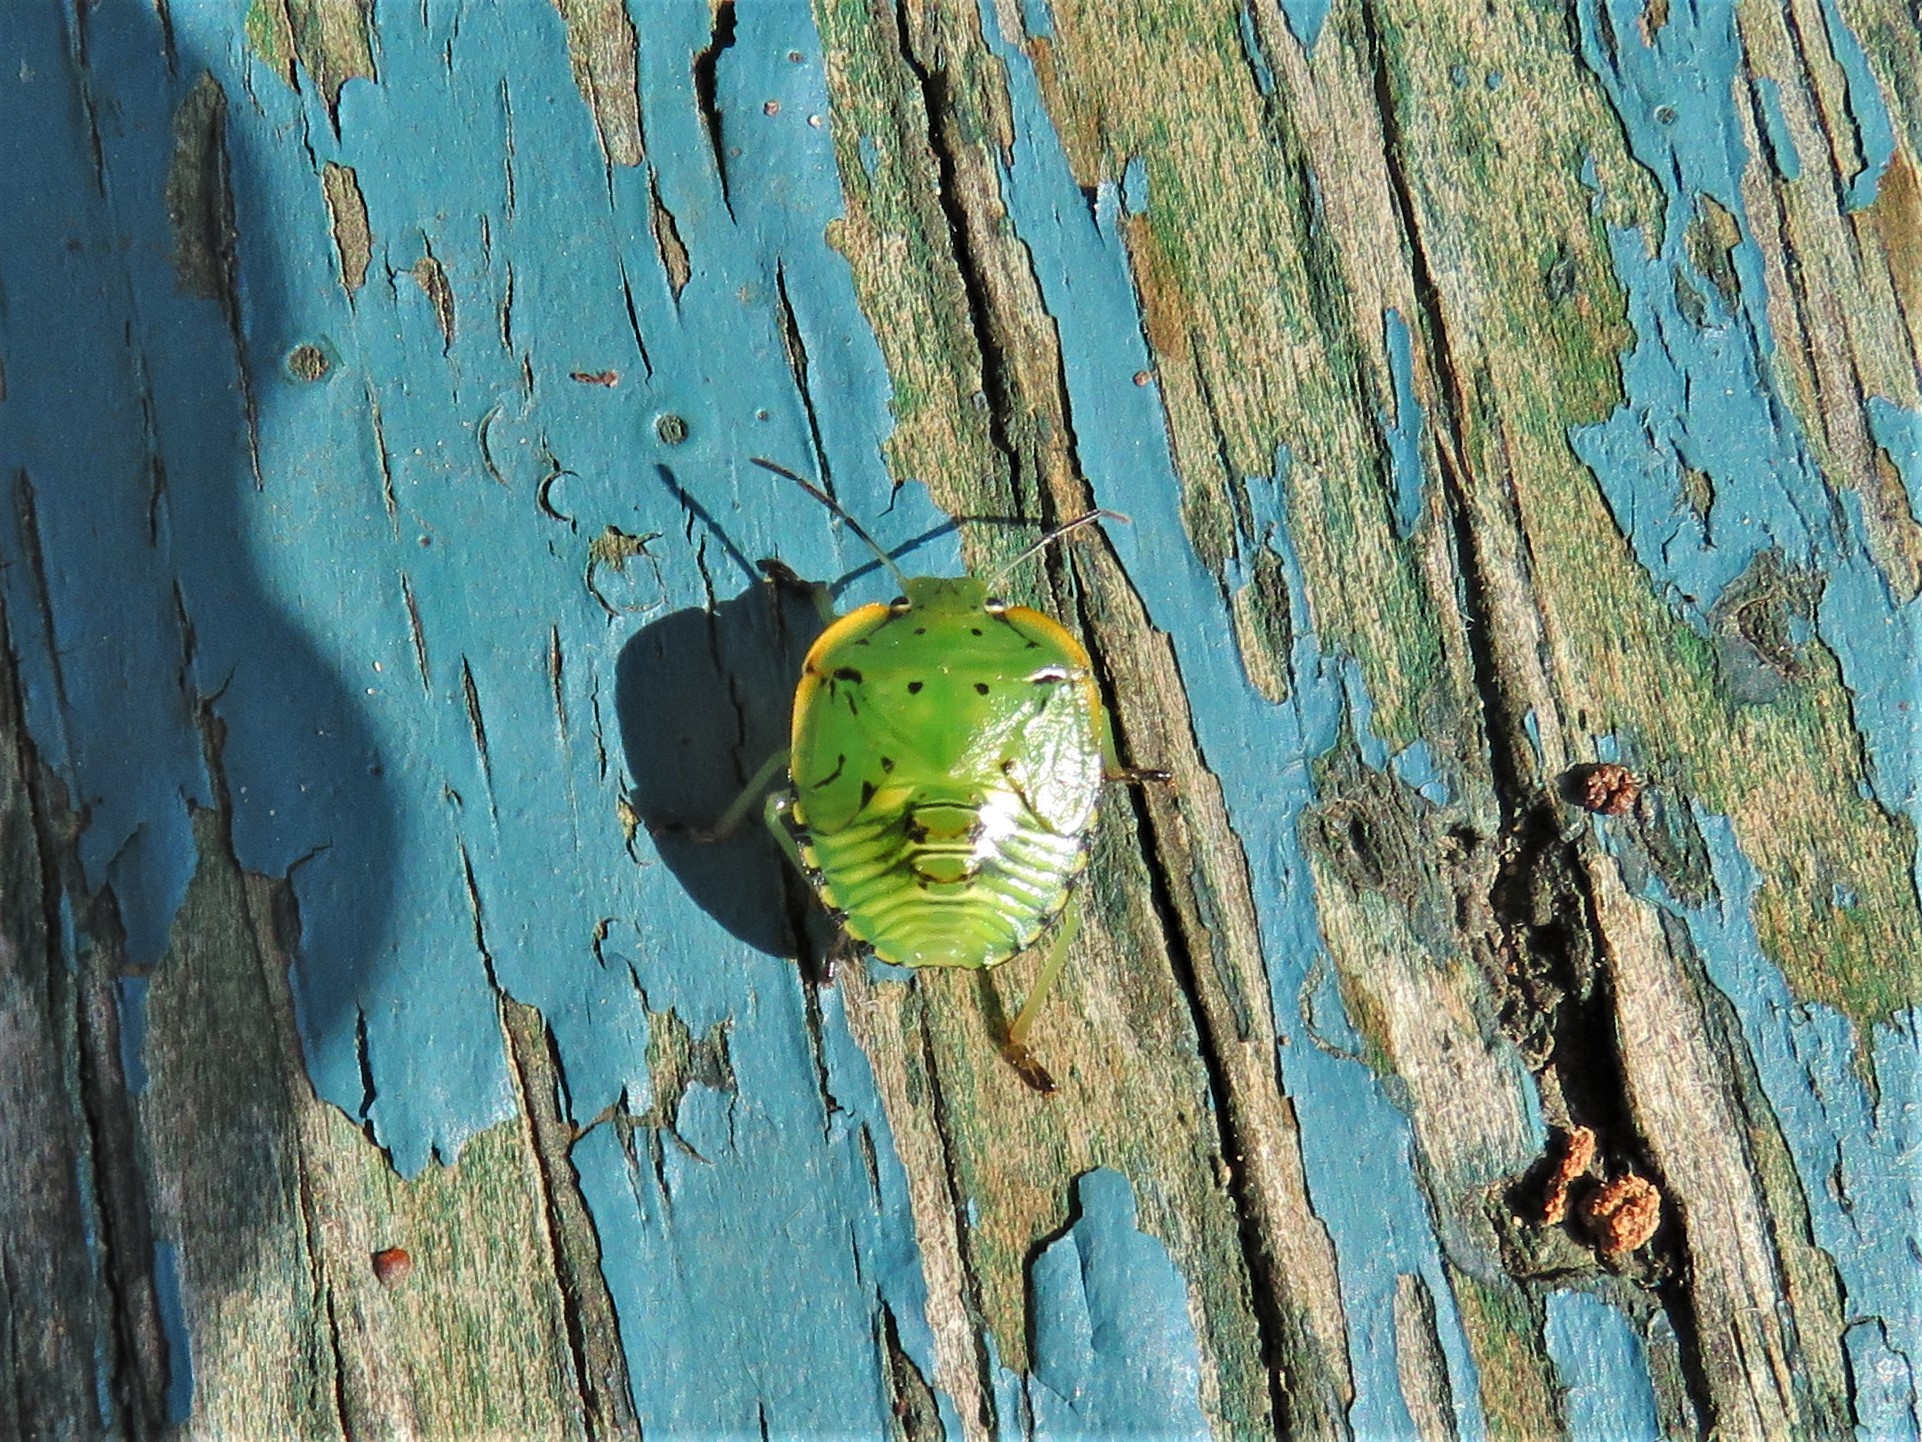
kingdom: Animalia
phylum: Arthropoda
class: Insecta
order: Hemiptera
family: Pentatomidae
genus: Chinavia
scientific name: Chinavia hilaris
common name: Green stink bug
